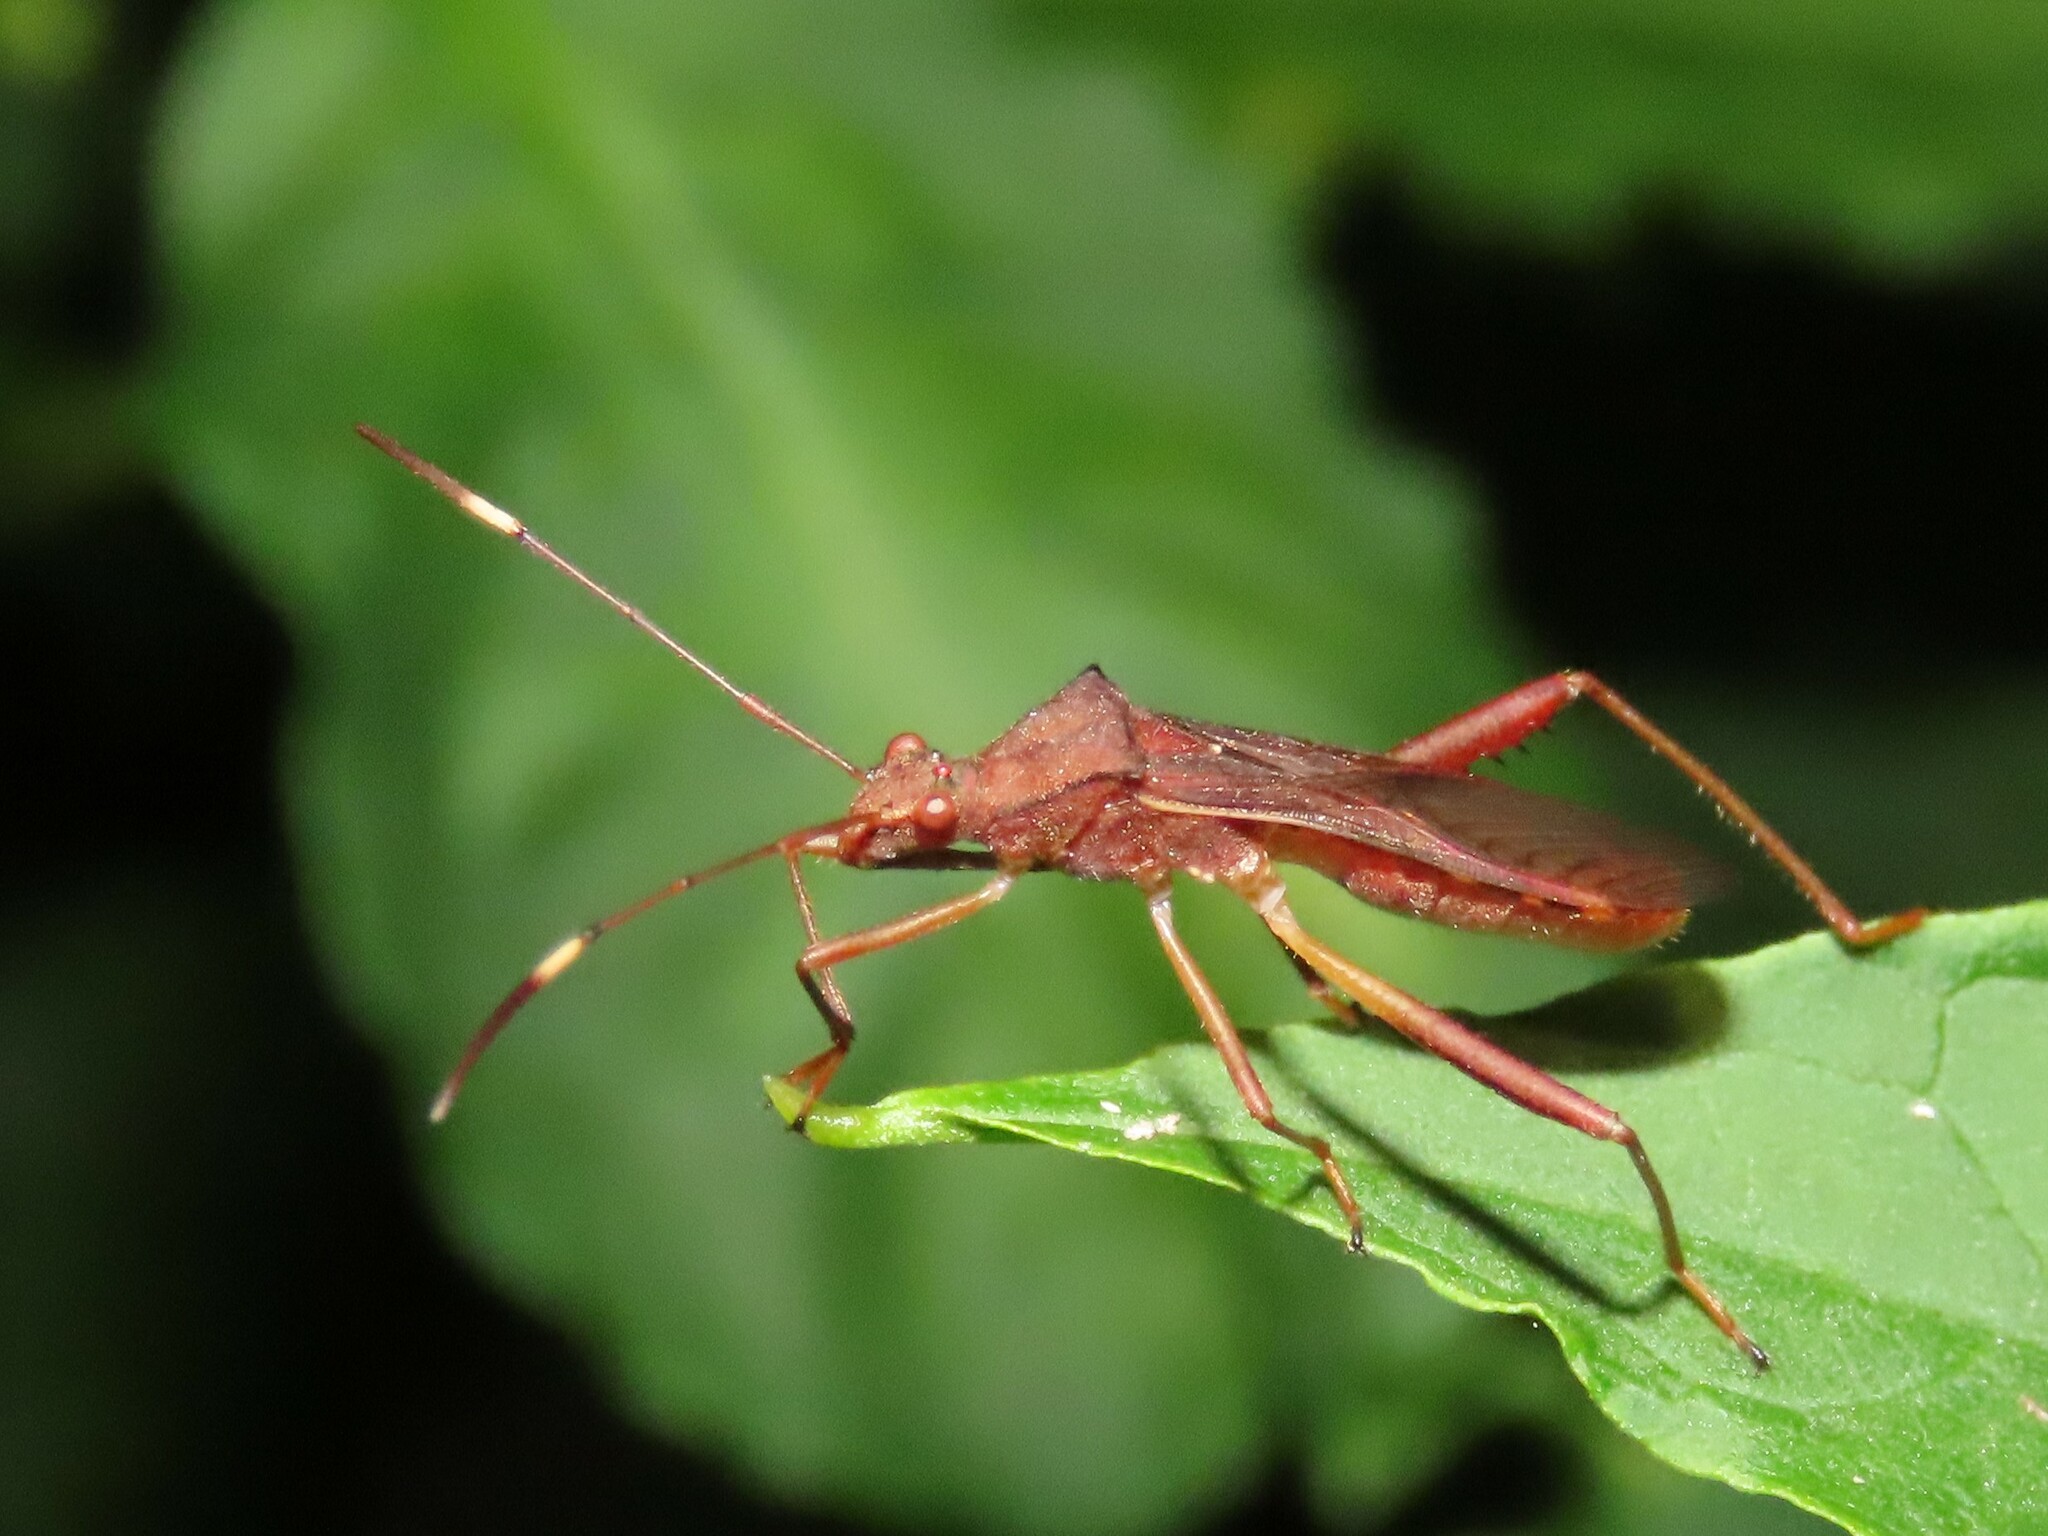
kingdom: Animalia
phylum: Arthropoda
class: Insecta
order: Hemiptera
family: Alydidae
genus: Megalotomus
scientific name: Megalotomus quinquespinosus
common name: Lupine bug
